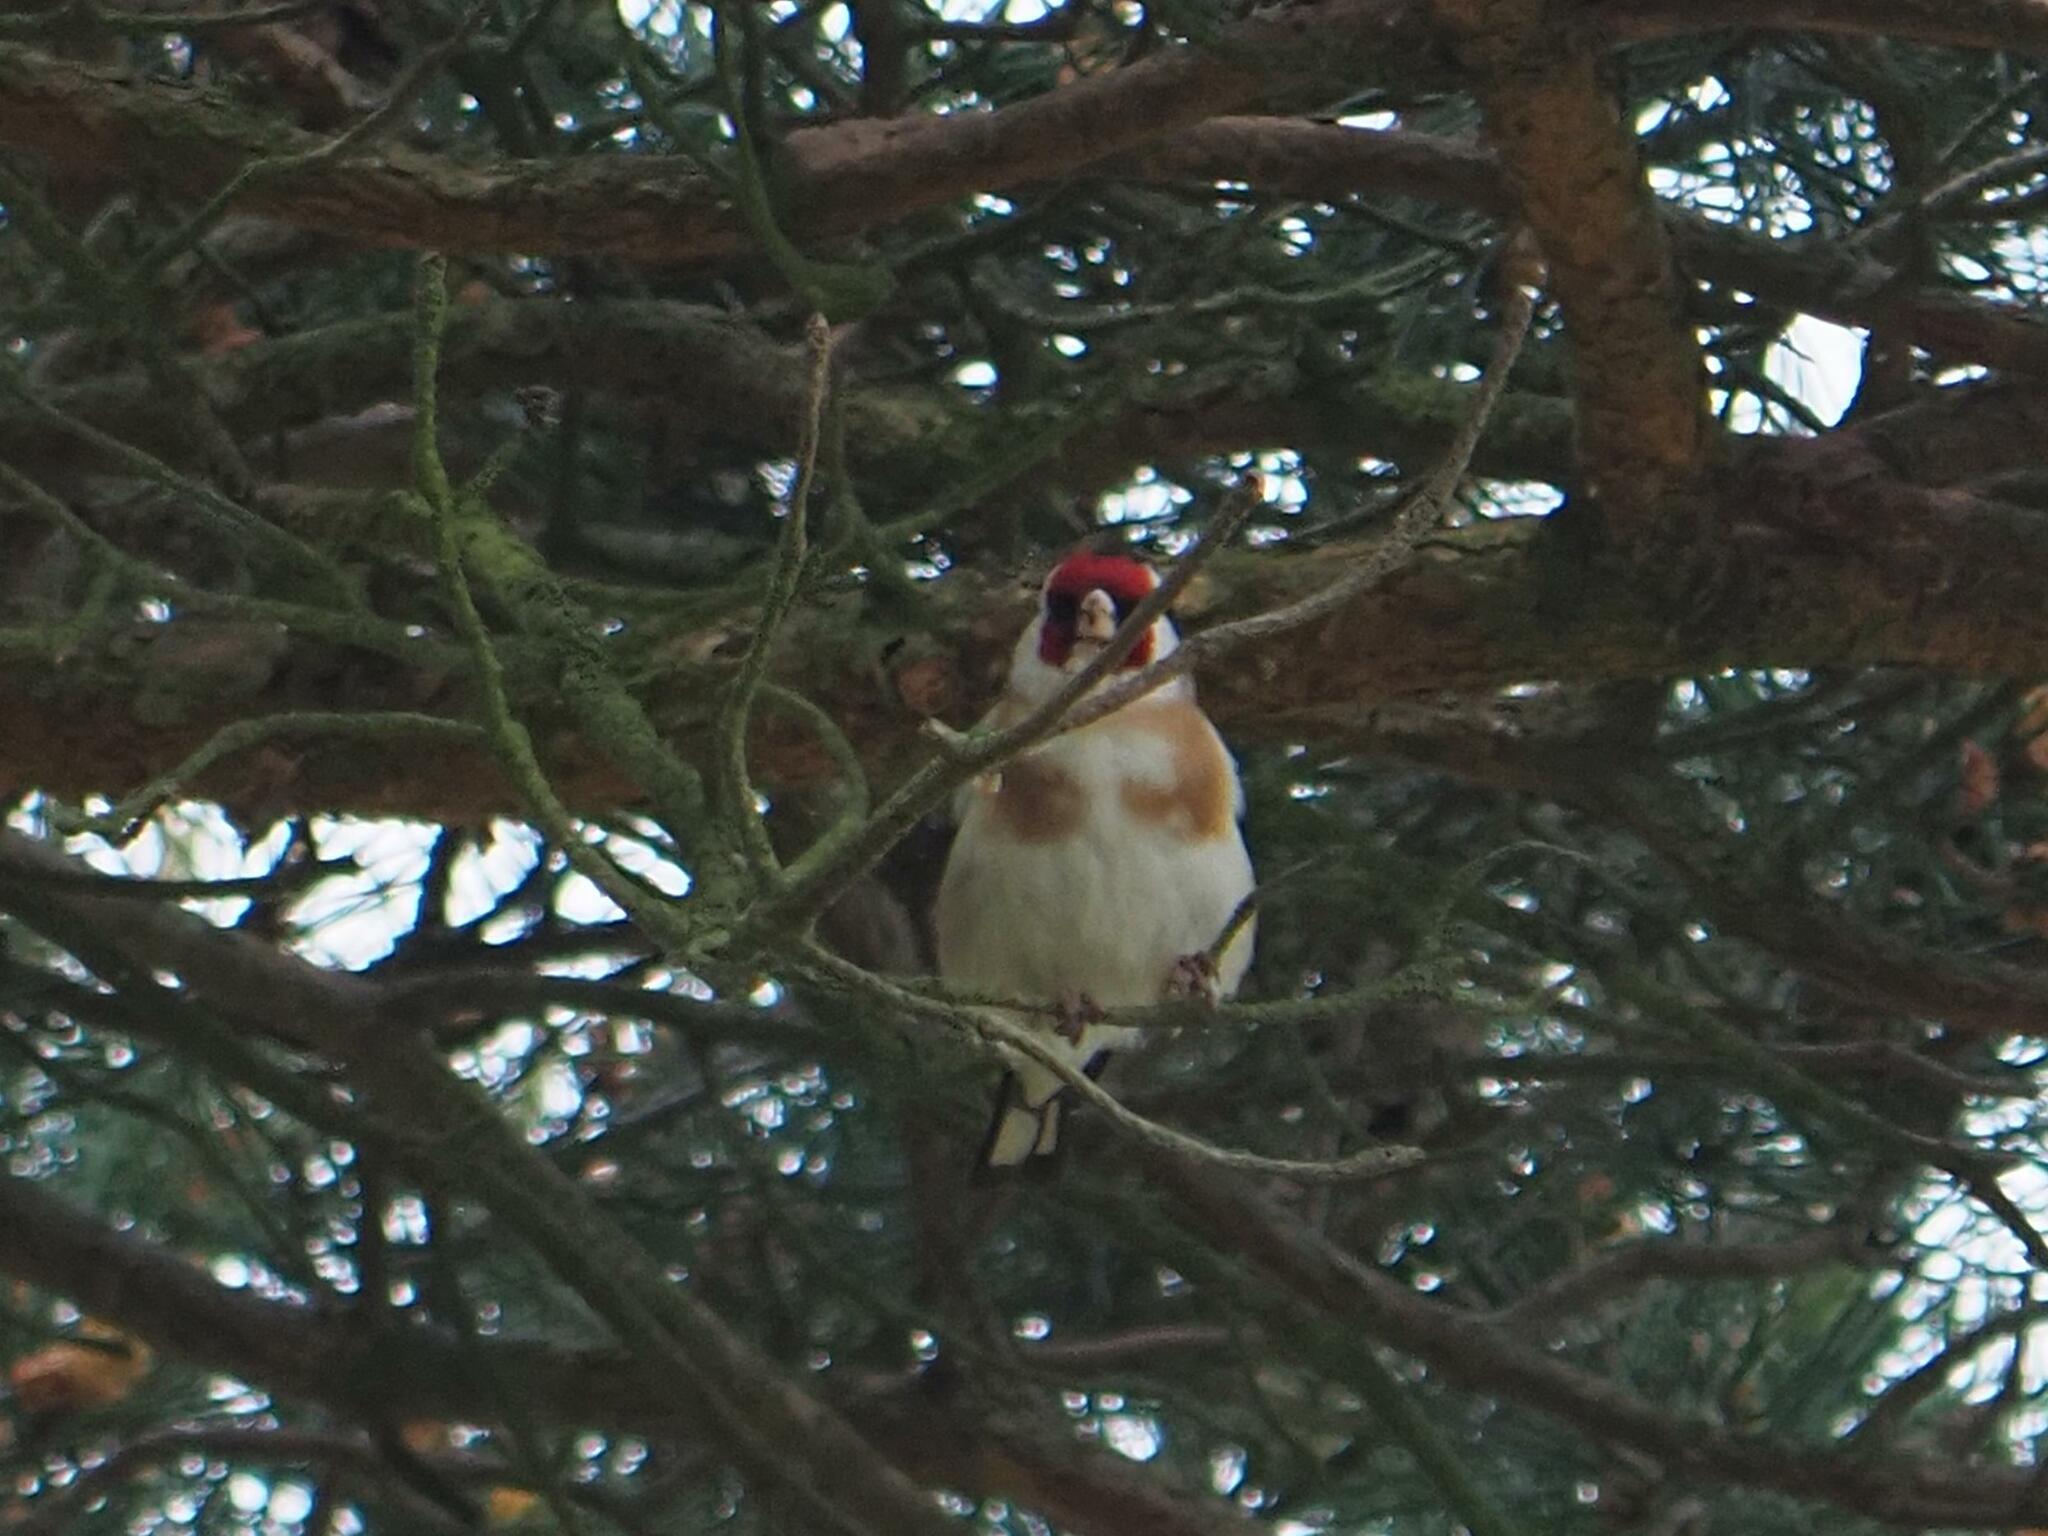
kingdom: Animalia
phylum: Chordata
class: Aves
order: Passeriformes
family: Fringillidae
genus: Carduelis
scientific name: Carduelis carduelis
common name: European goldfinch
